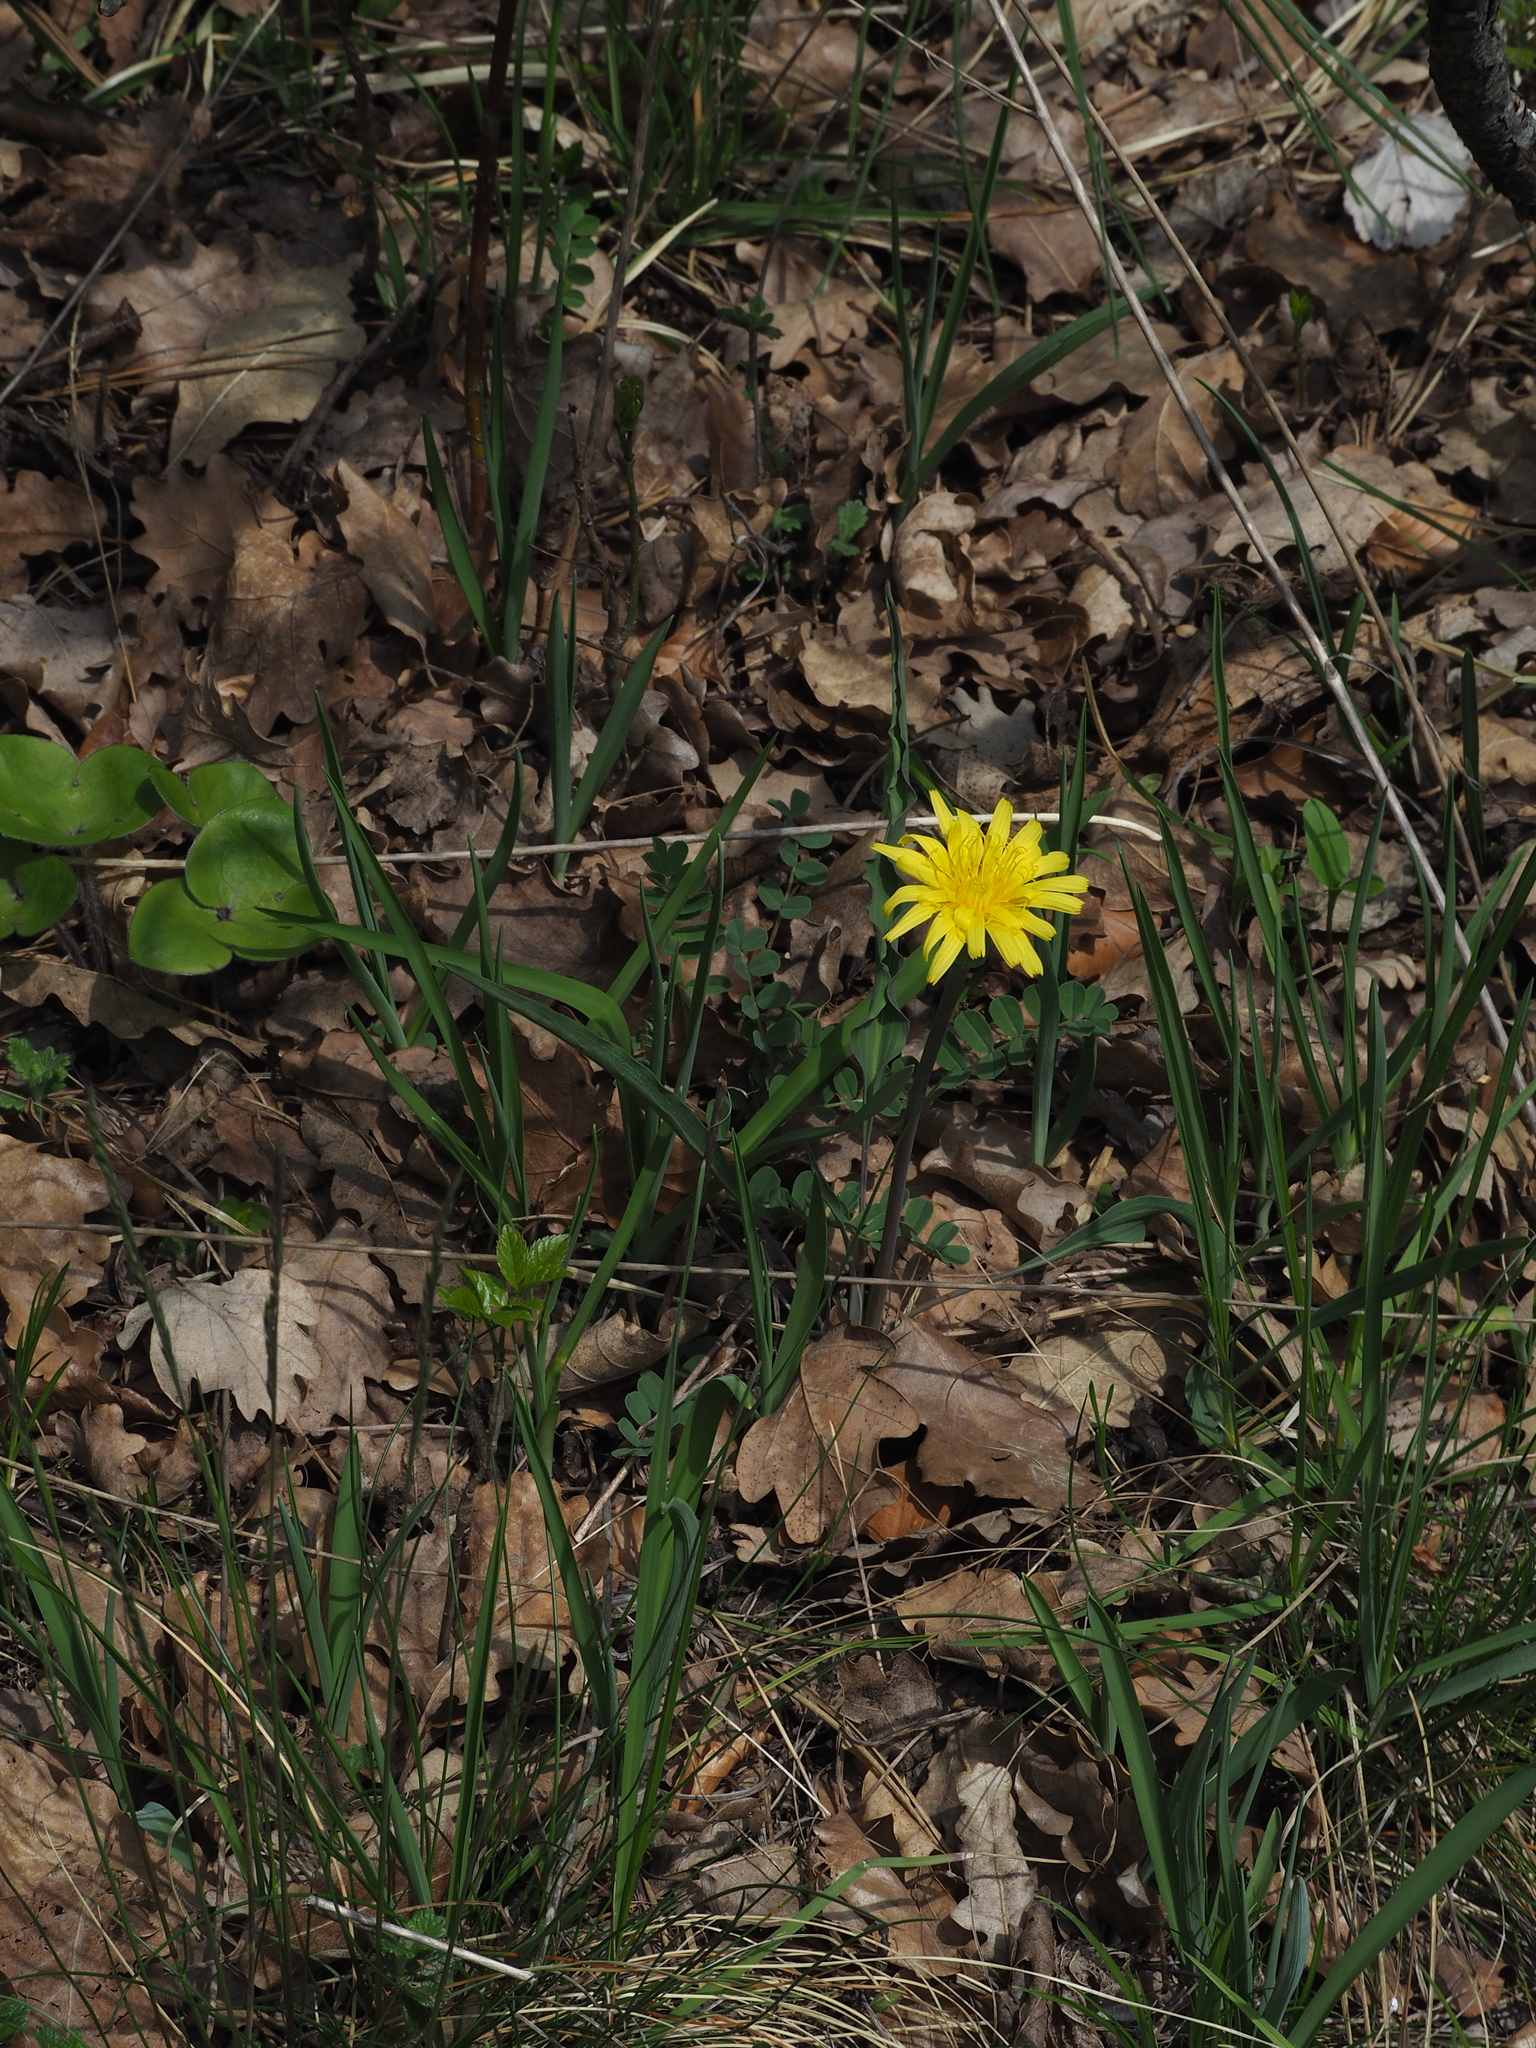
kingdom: Plantae
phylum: Tracheophyta
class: Magnoliopsida
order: Asterales
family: Asteraceae
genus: Takhtajaniantha
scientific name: Takhtajaniantha austriaca
